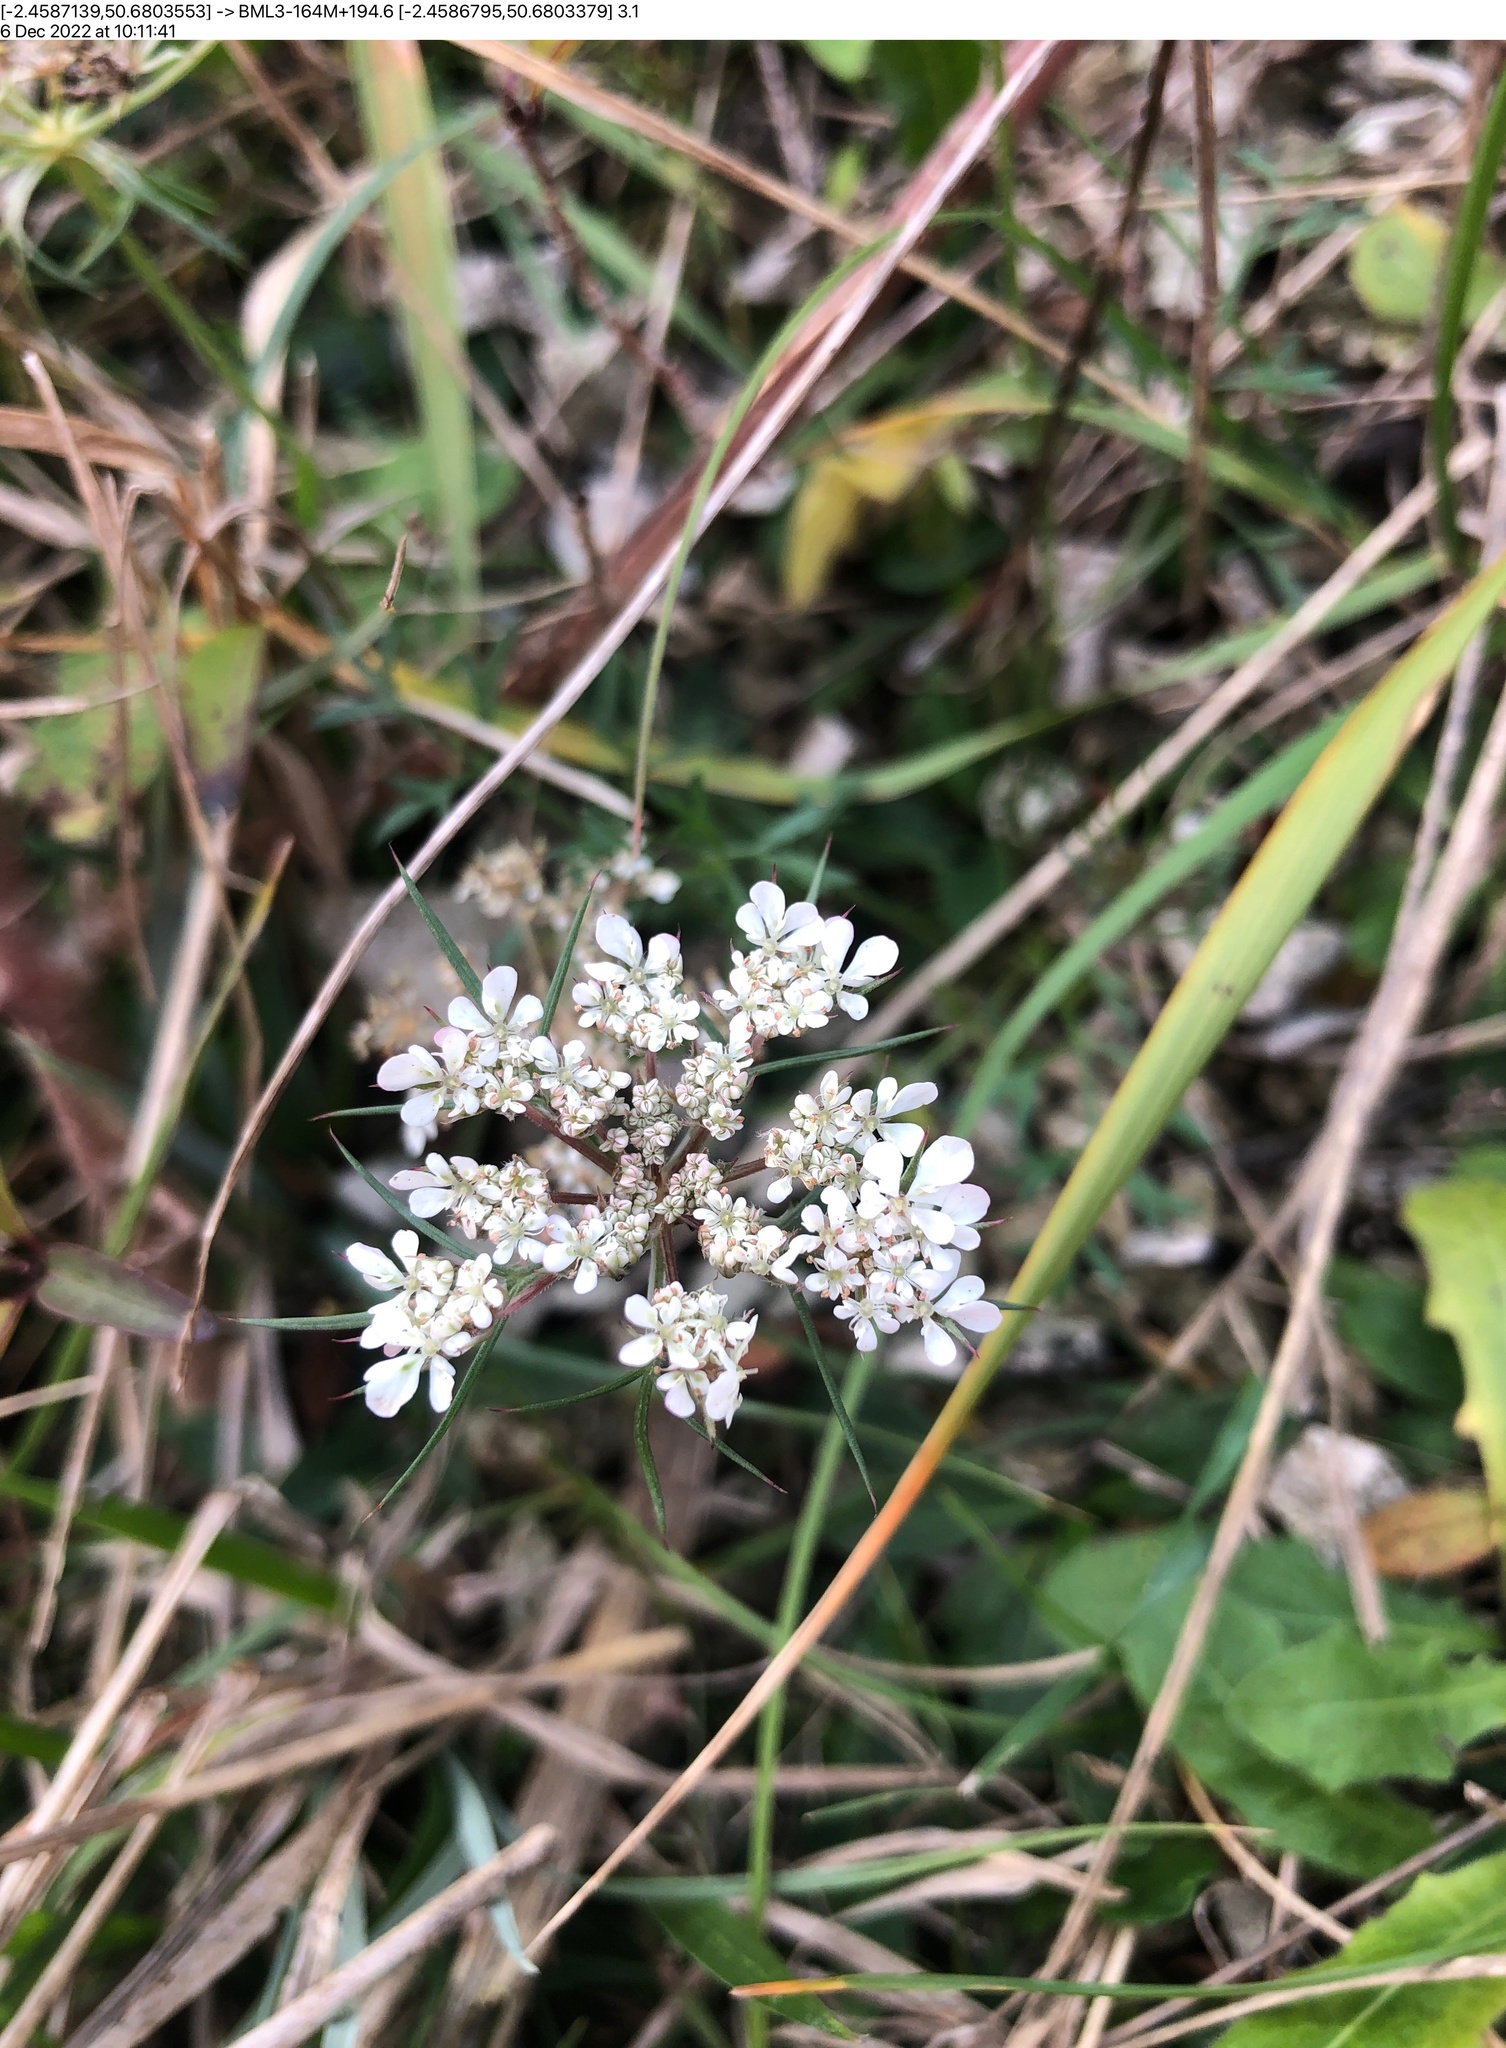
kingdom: Plantae
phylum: Tracheophyta
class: Magnoliopsida
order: Apiales
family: Apiaceae
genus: Daucus
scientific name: Daucus carota
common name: Wild carrot
